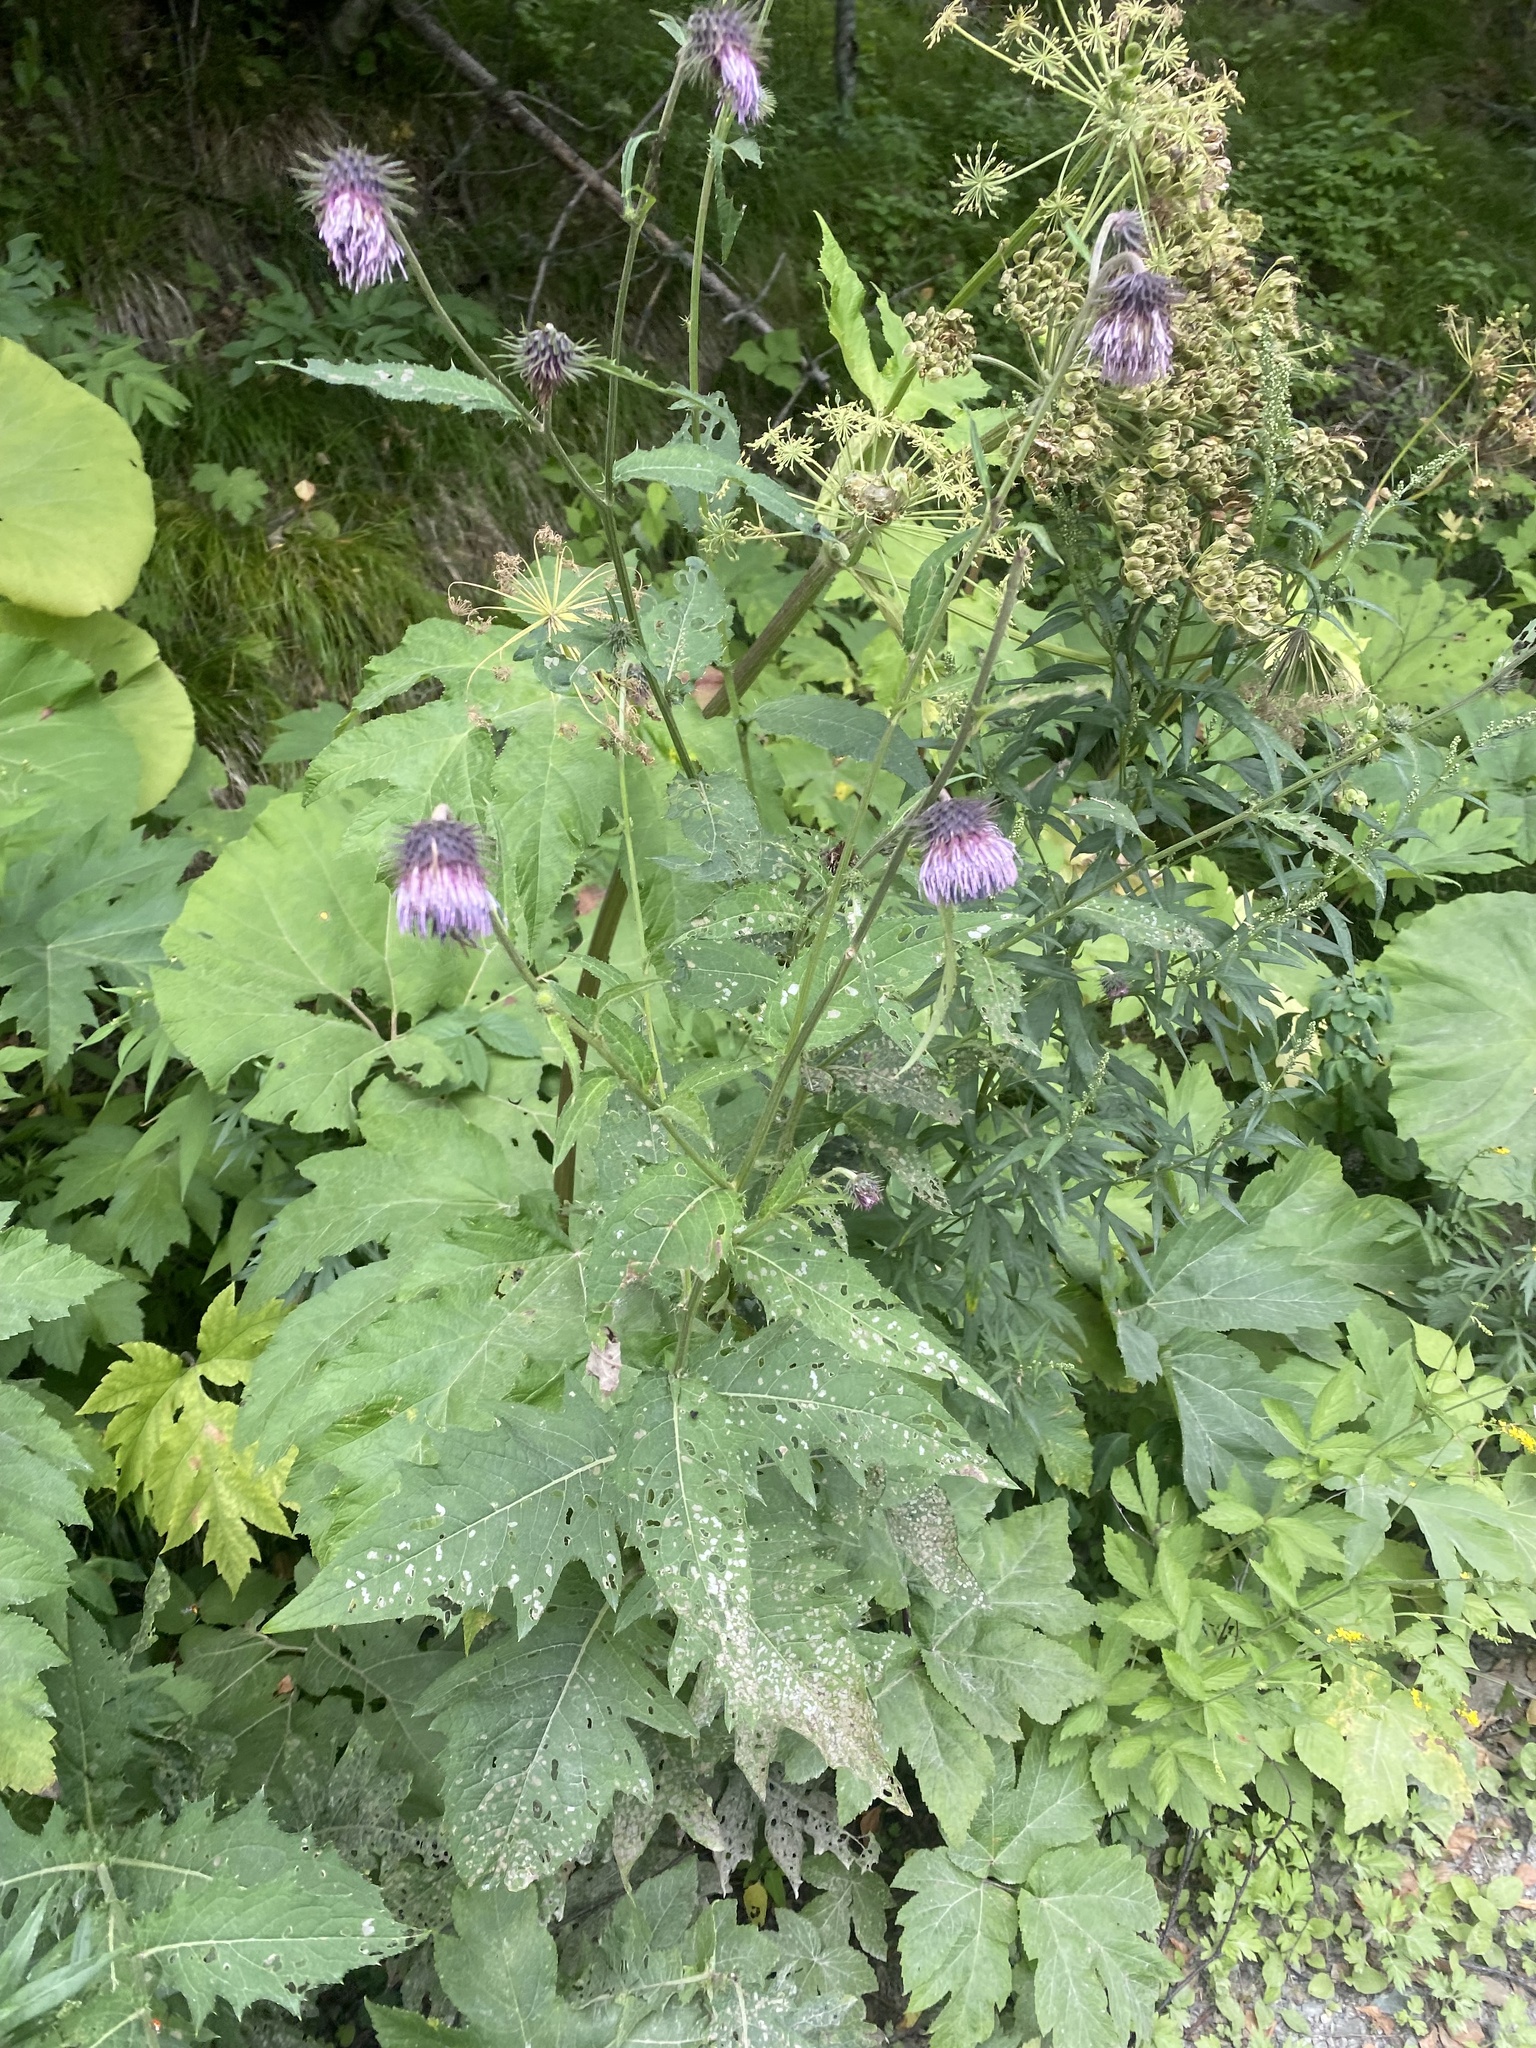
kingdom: Plantae
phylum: Tracheophyta
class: Magnoliopsida
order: Asterales
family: Asteraceae
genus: Cirsium
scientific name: Cirsium kamtschaticum
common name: Kamchatka thistle
